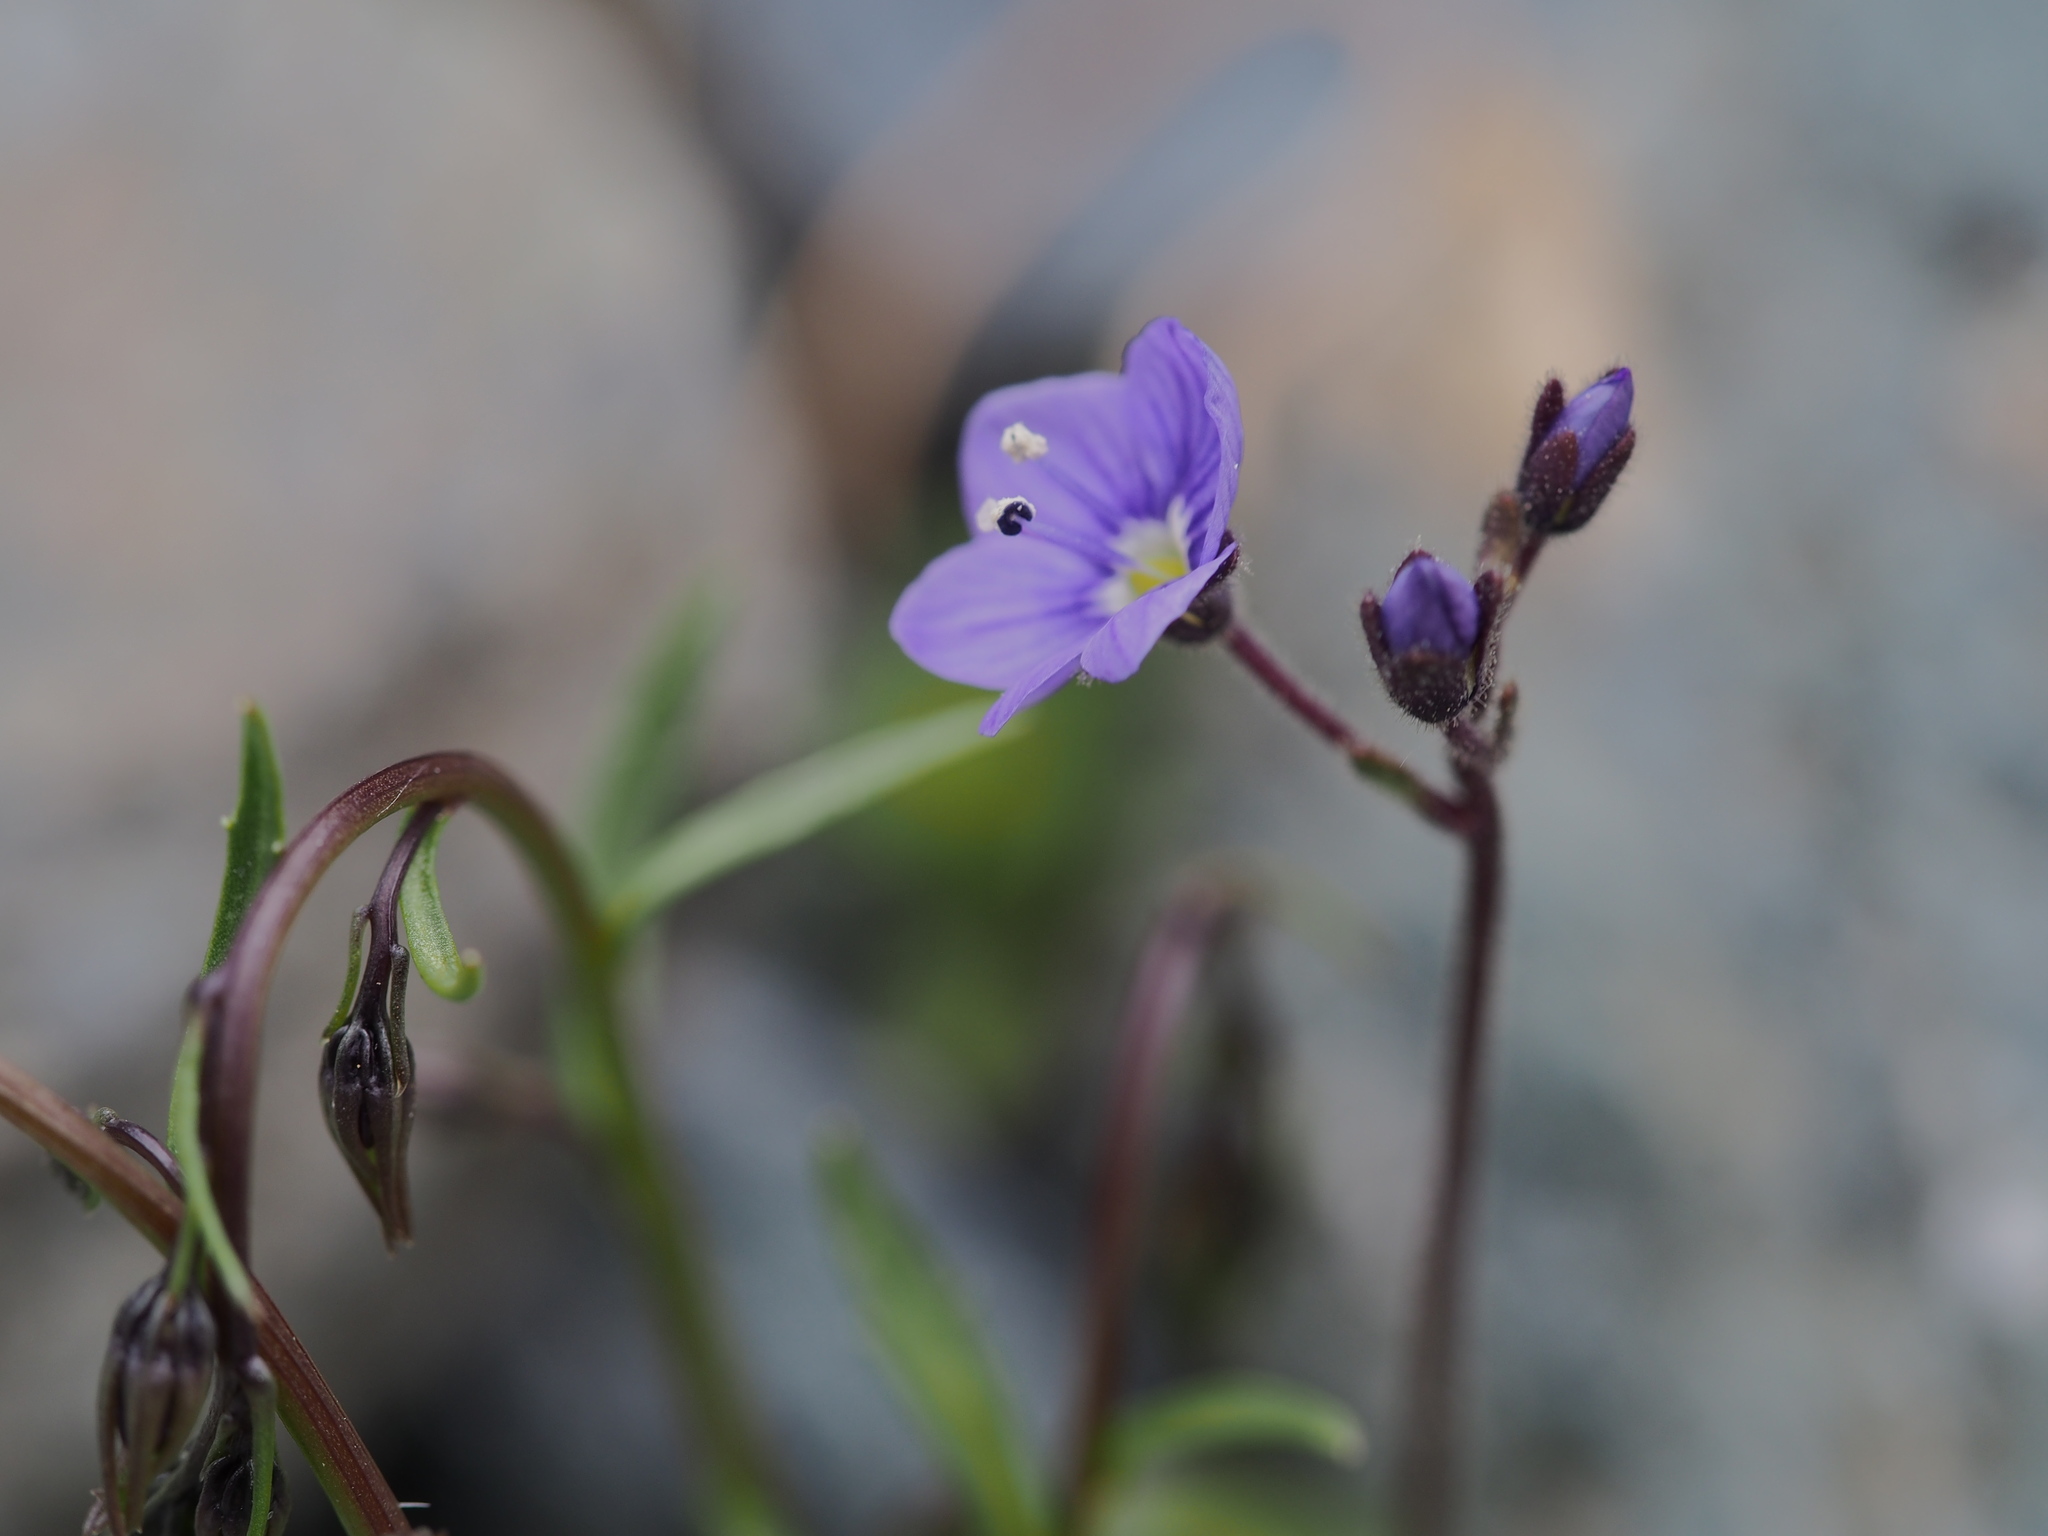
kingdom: Plantae
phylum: Tracheophyta
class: Magnoliopsida
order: Lamiales
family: Plantaginaceae
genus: Veronica
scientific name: Veronica fruticans
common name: Rock speedwell
